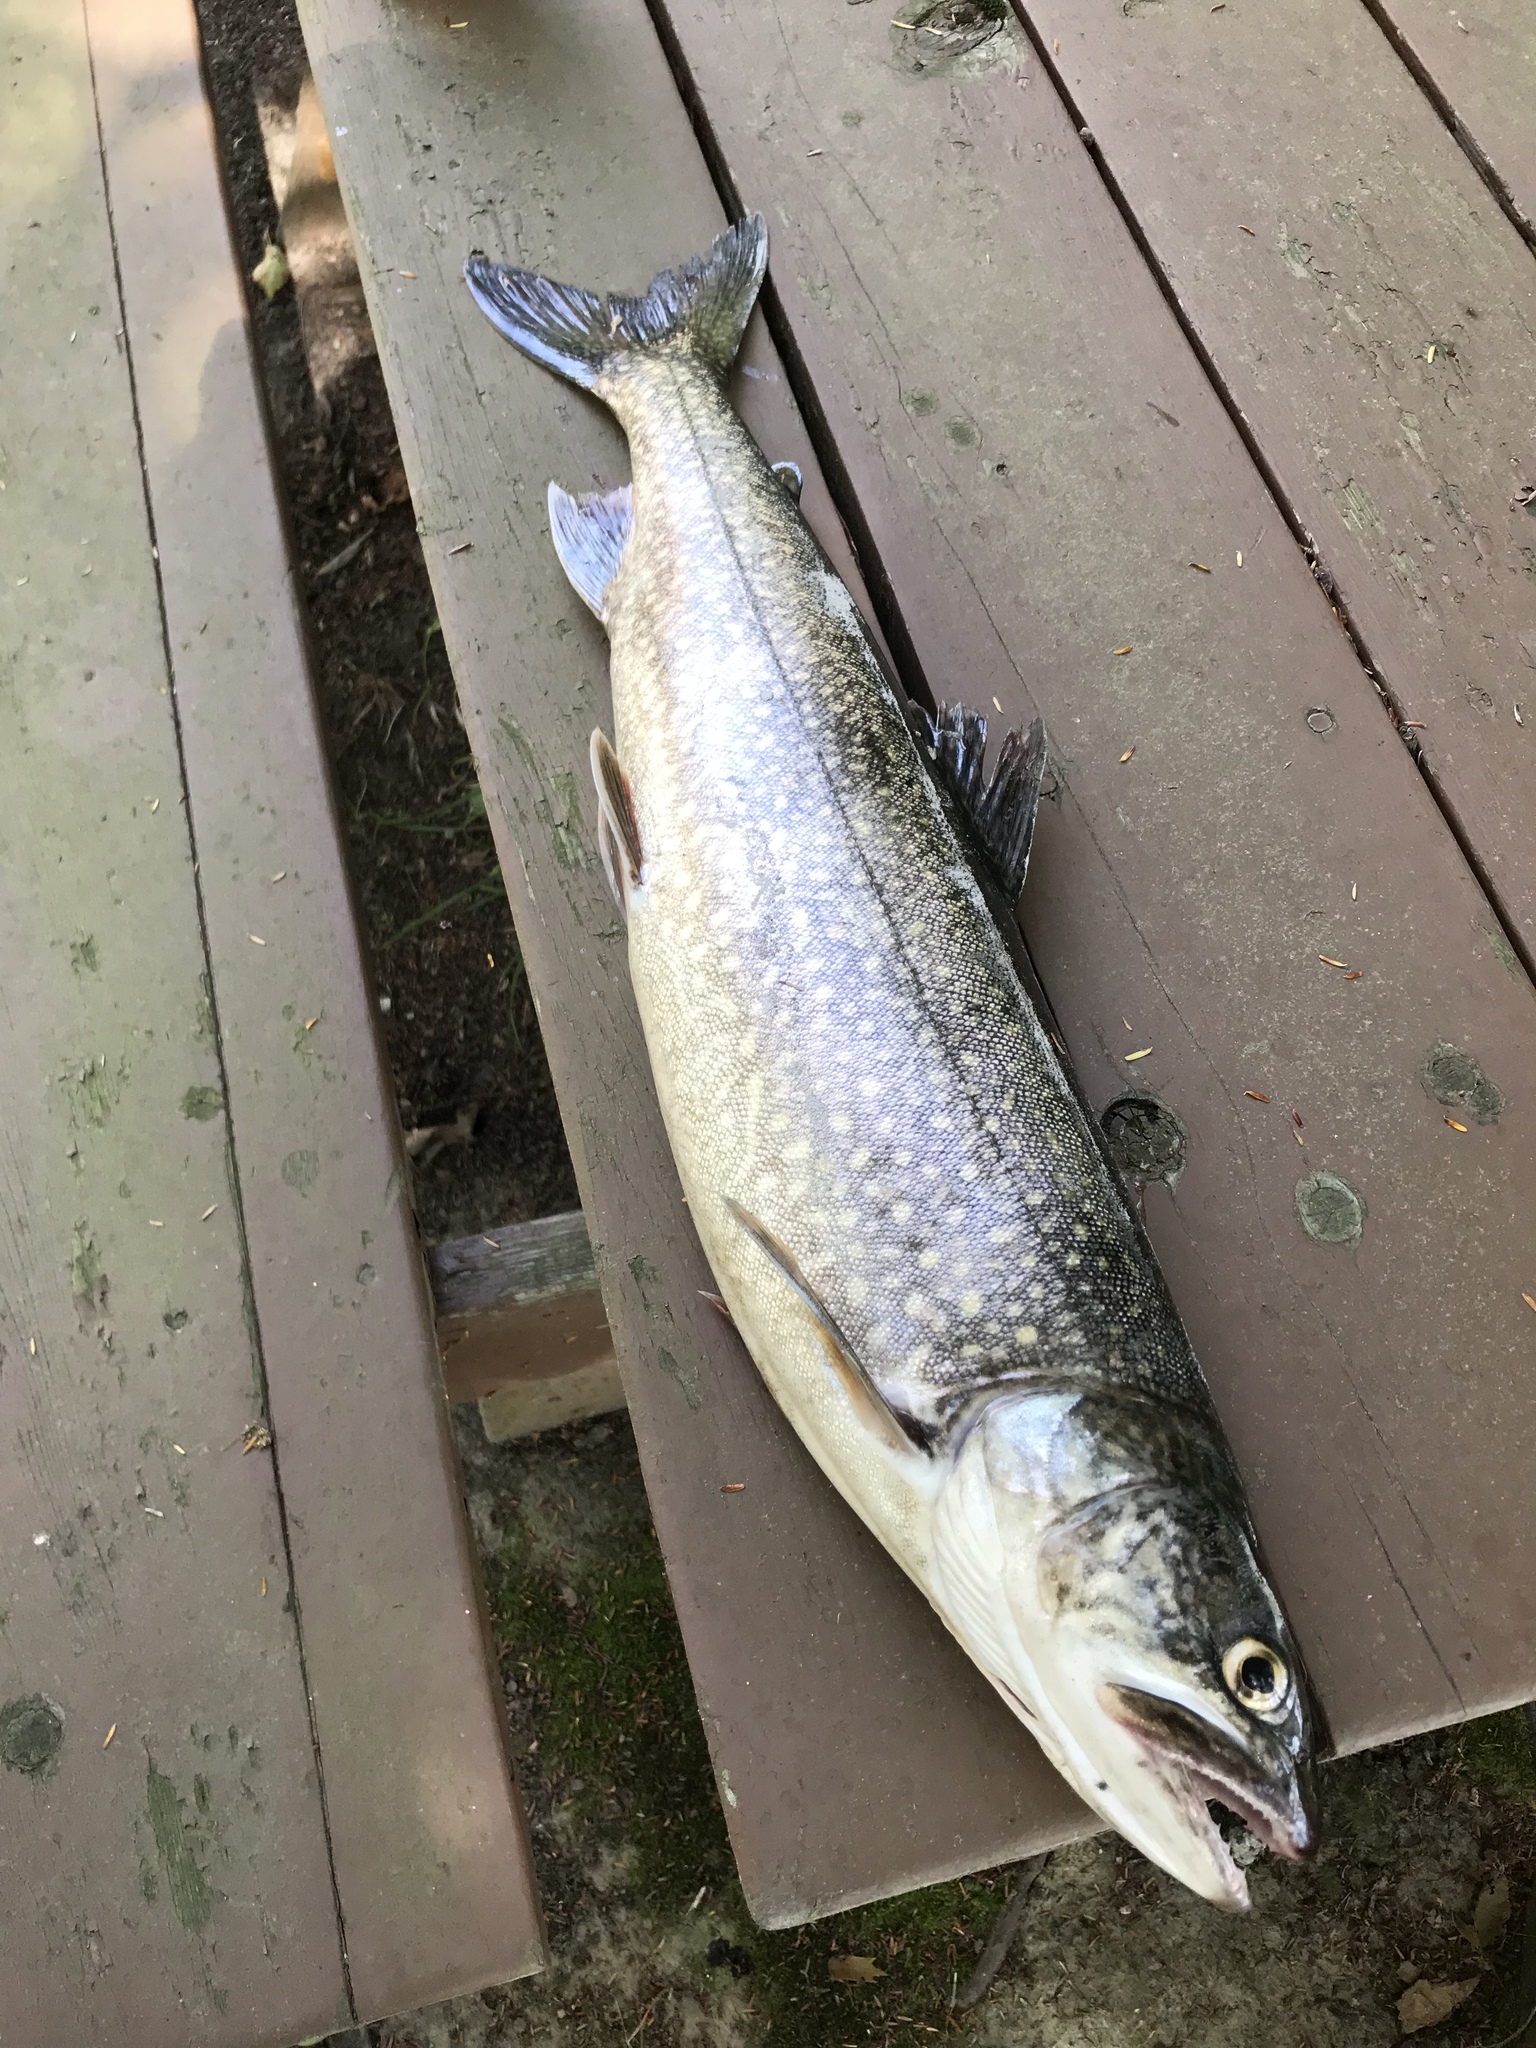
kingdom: Animalia
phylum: Chordata
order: Salmoniformes
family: Salmonidae
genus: Salvelinus
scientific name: Salvelinus namaycush
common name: American lake charr
